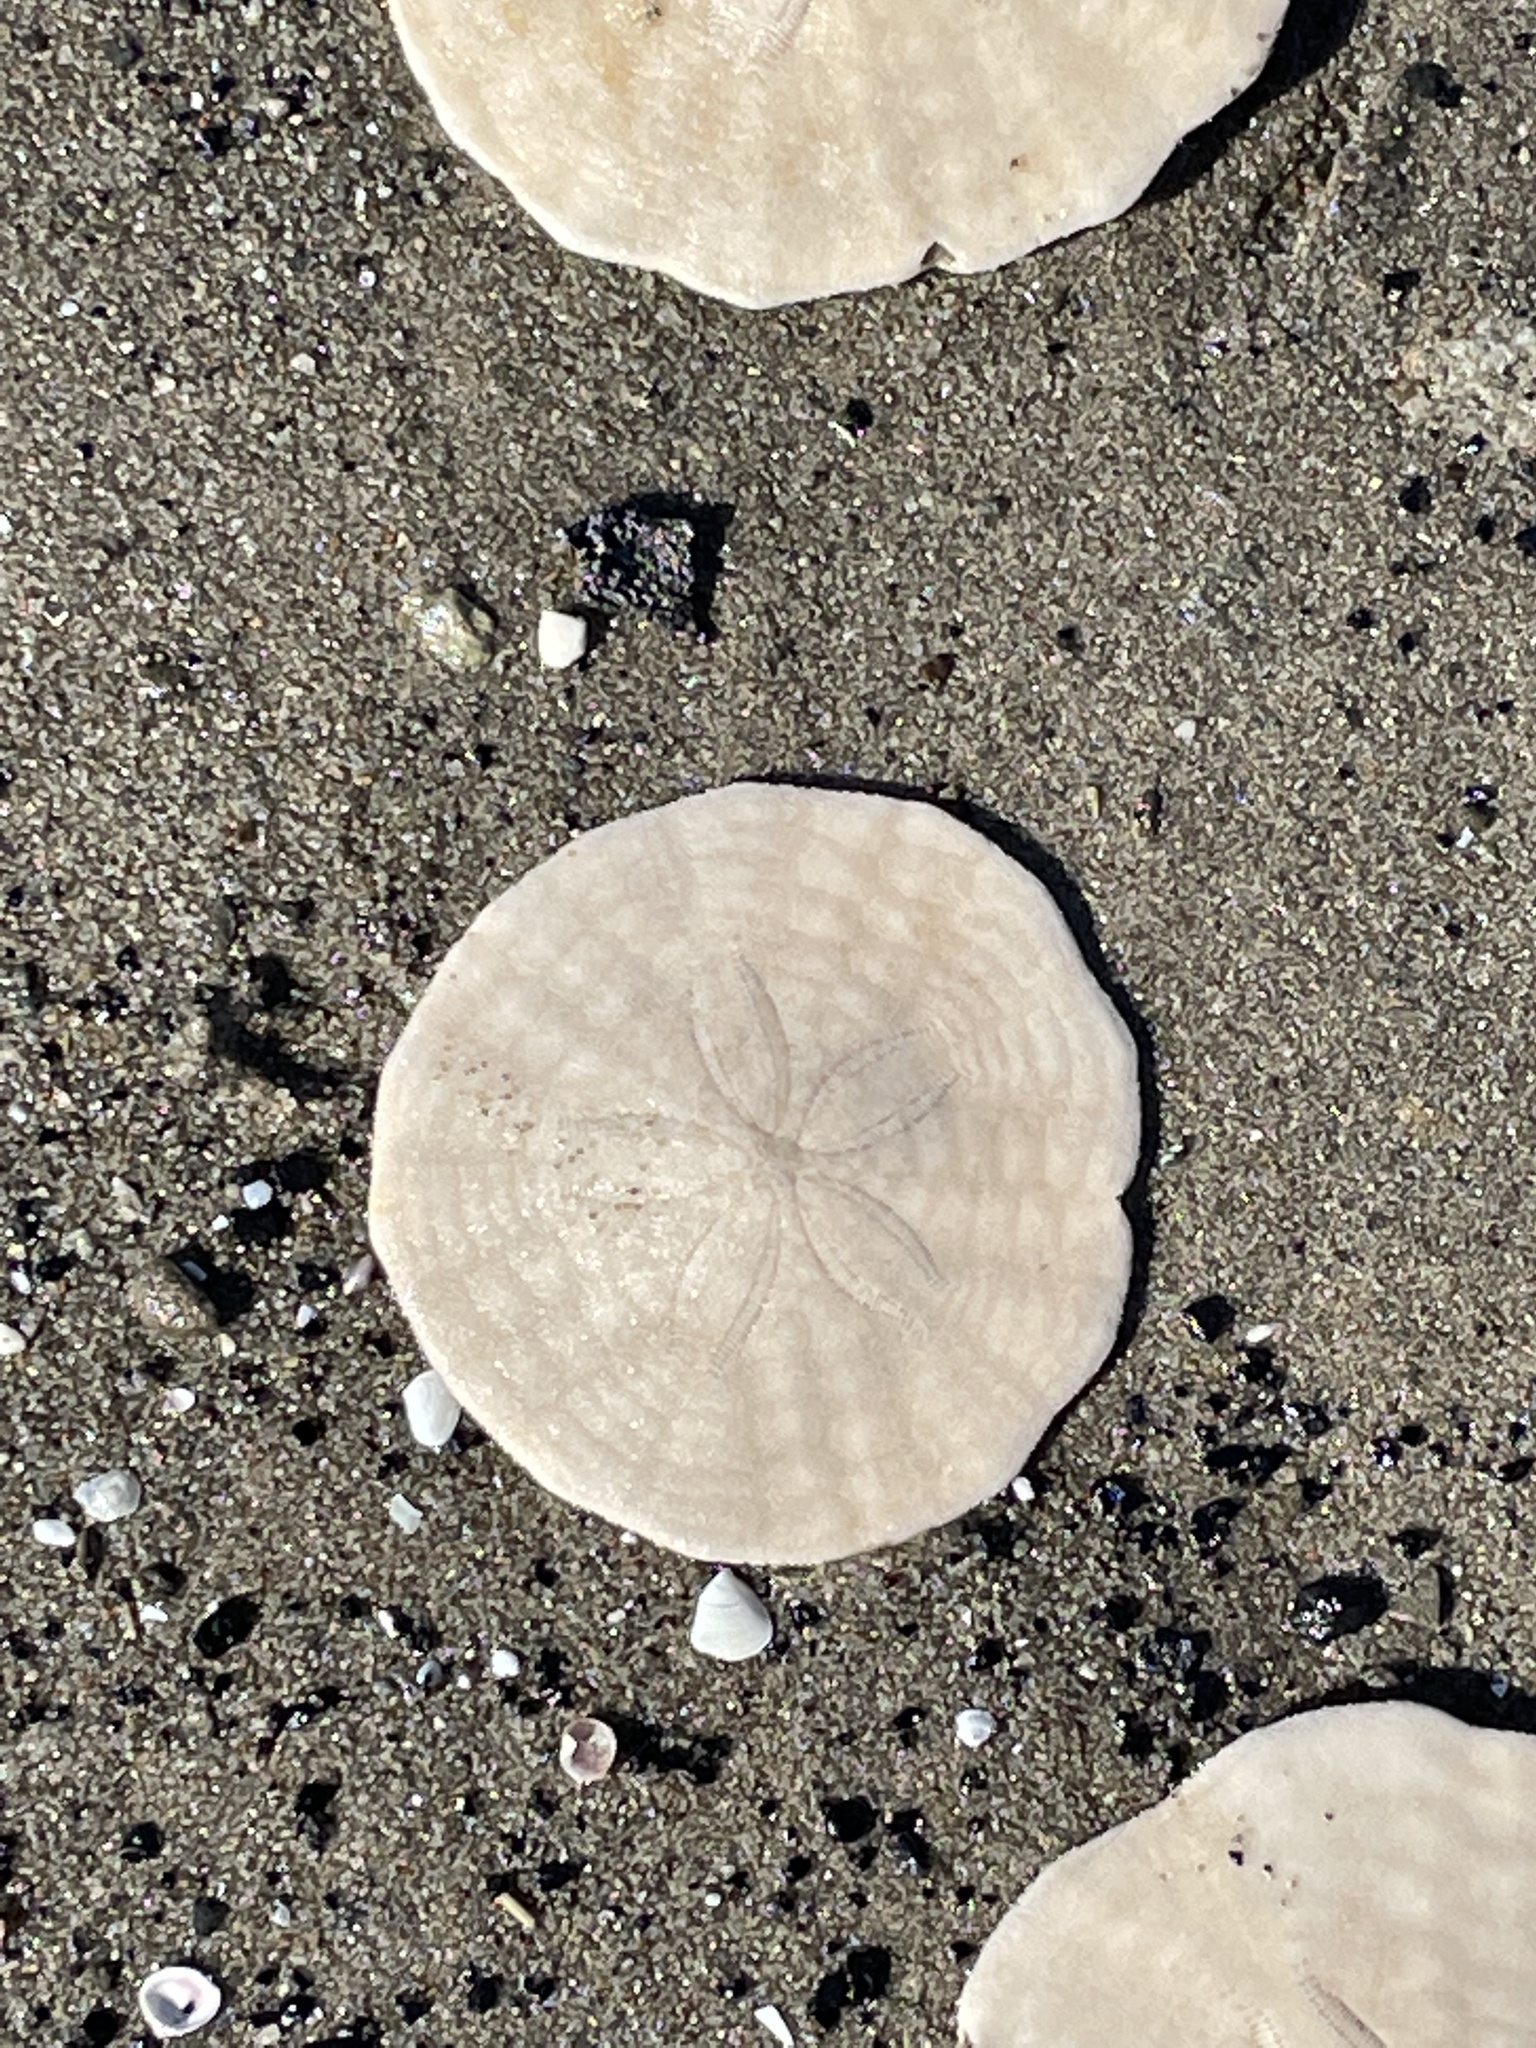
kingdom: Animalia
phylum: Echinodermata
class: Echinoidea
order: Echinolampadacea
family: Echinarachniidae
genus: Echinarachnius
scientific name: Echinarachnius parma
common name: Common sand dollar
